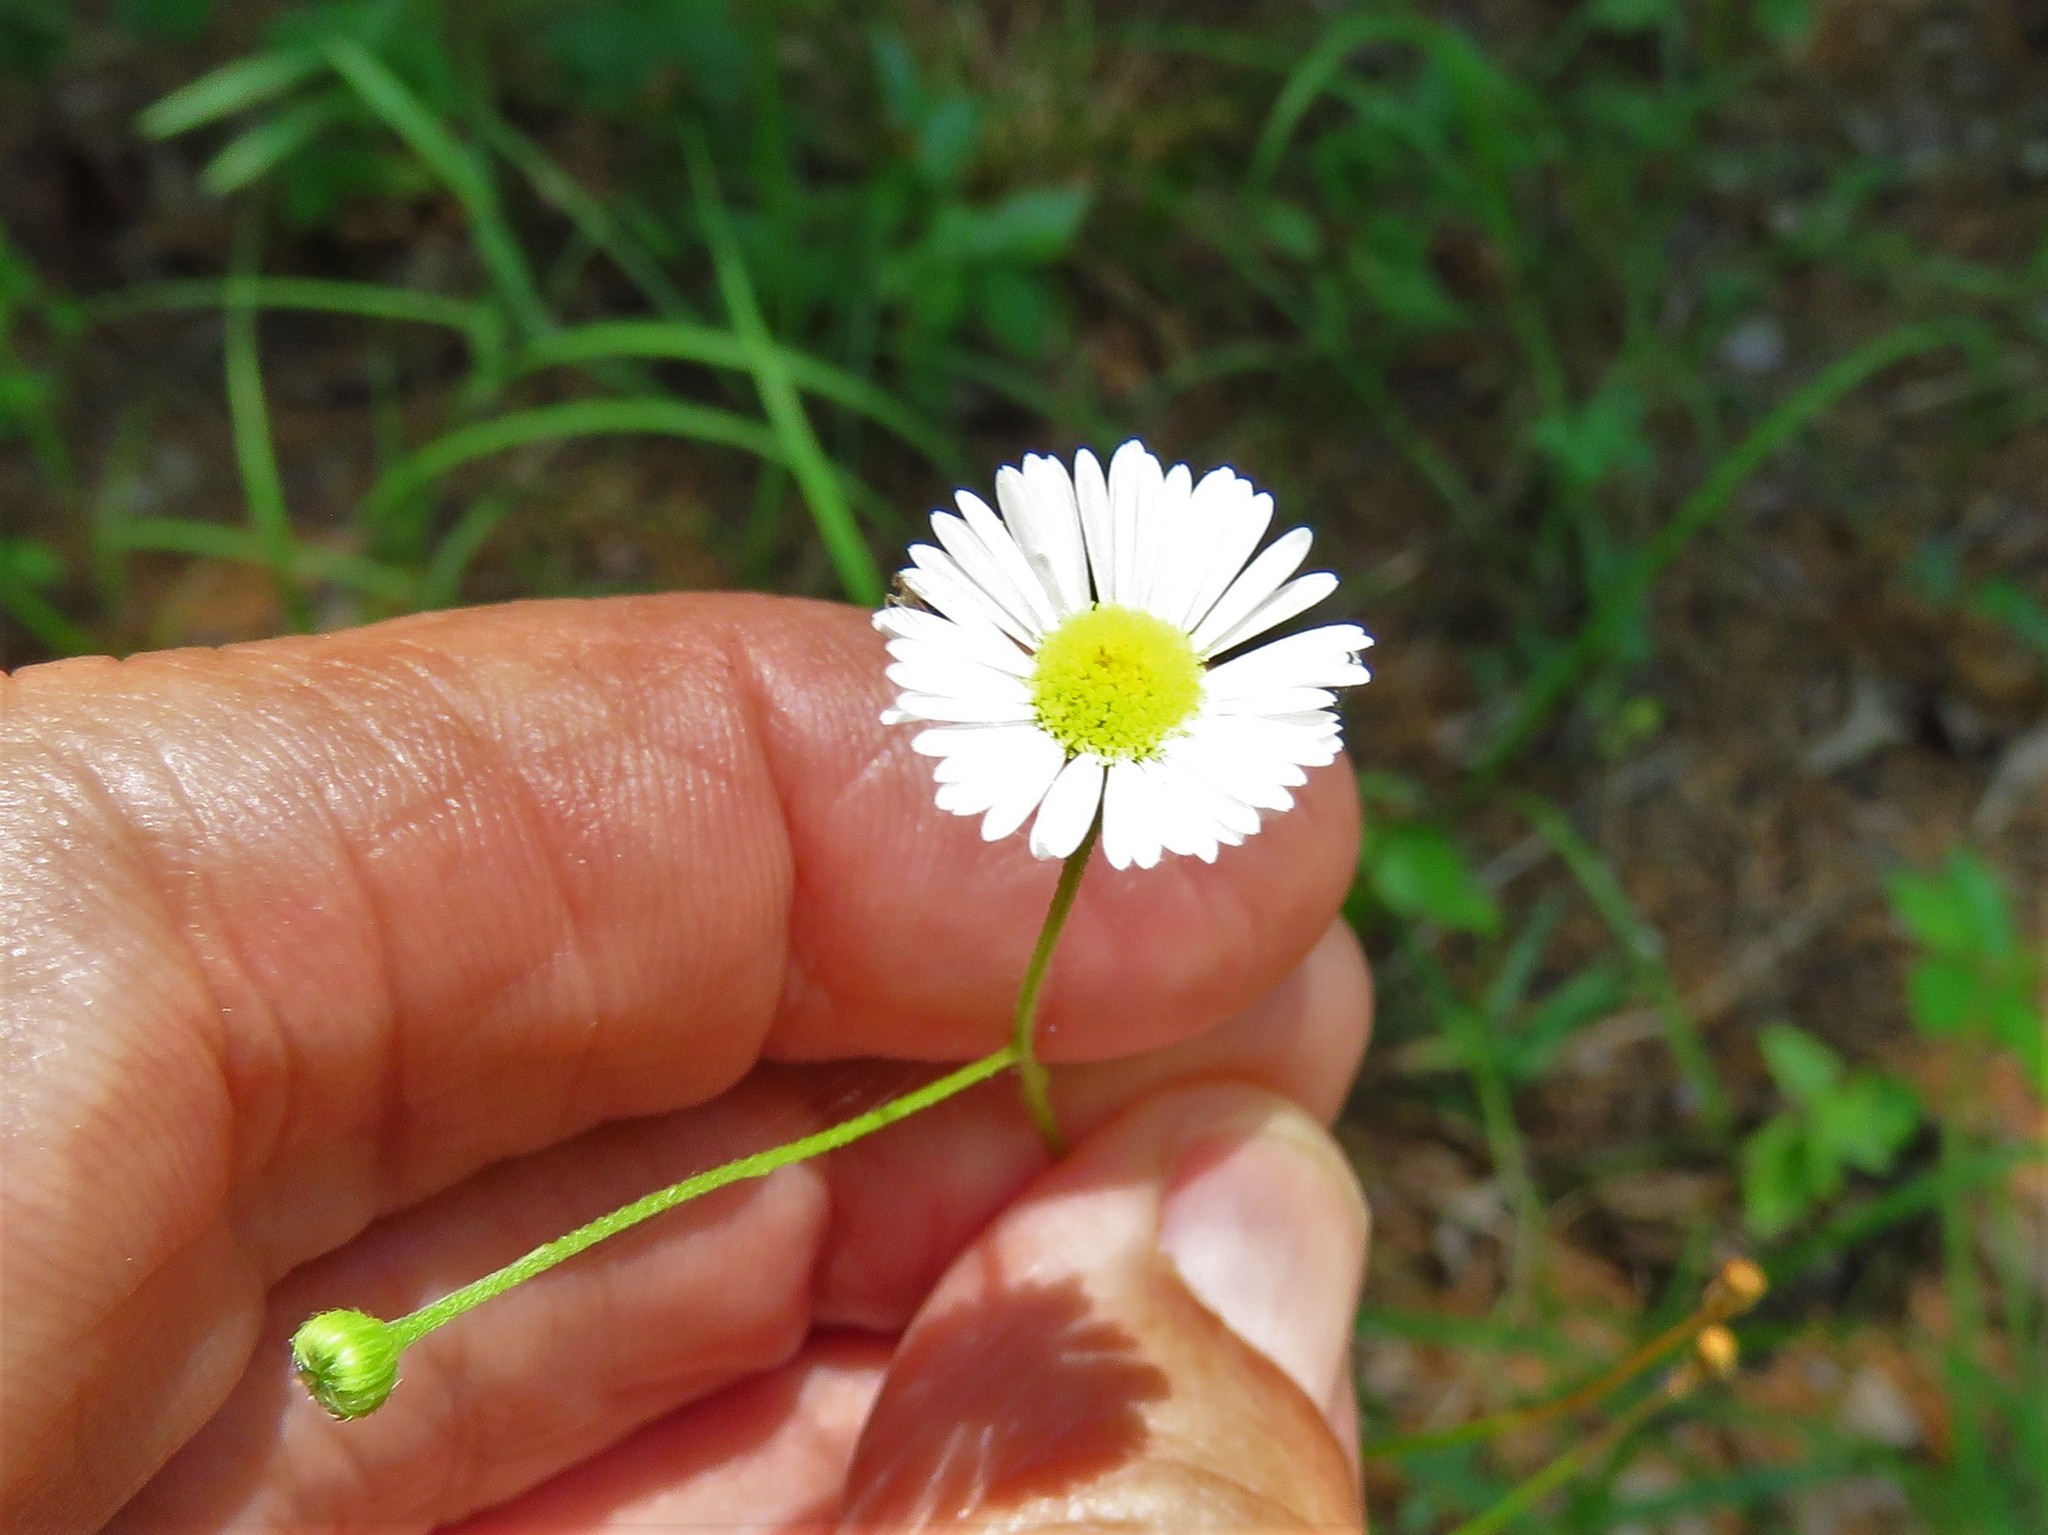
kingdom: Plantae
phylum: Tracheophyta
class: Magnoliopsida
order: Asterales
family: Asteraceae
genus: Erigeron
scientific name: Erigeron strigosus
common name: Common eastern fleabane
